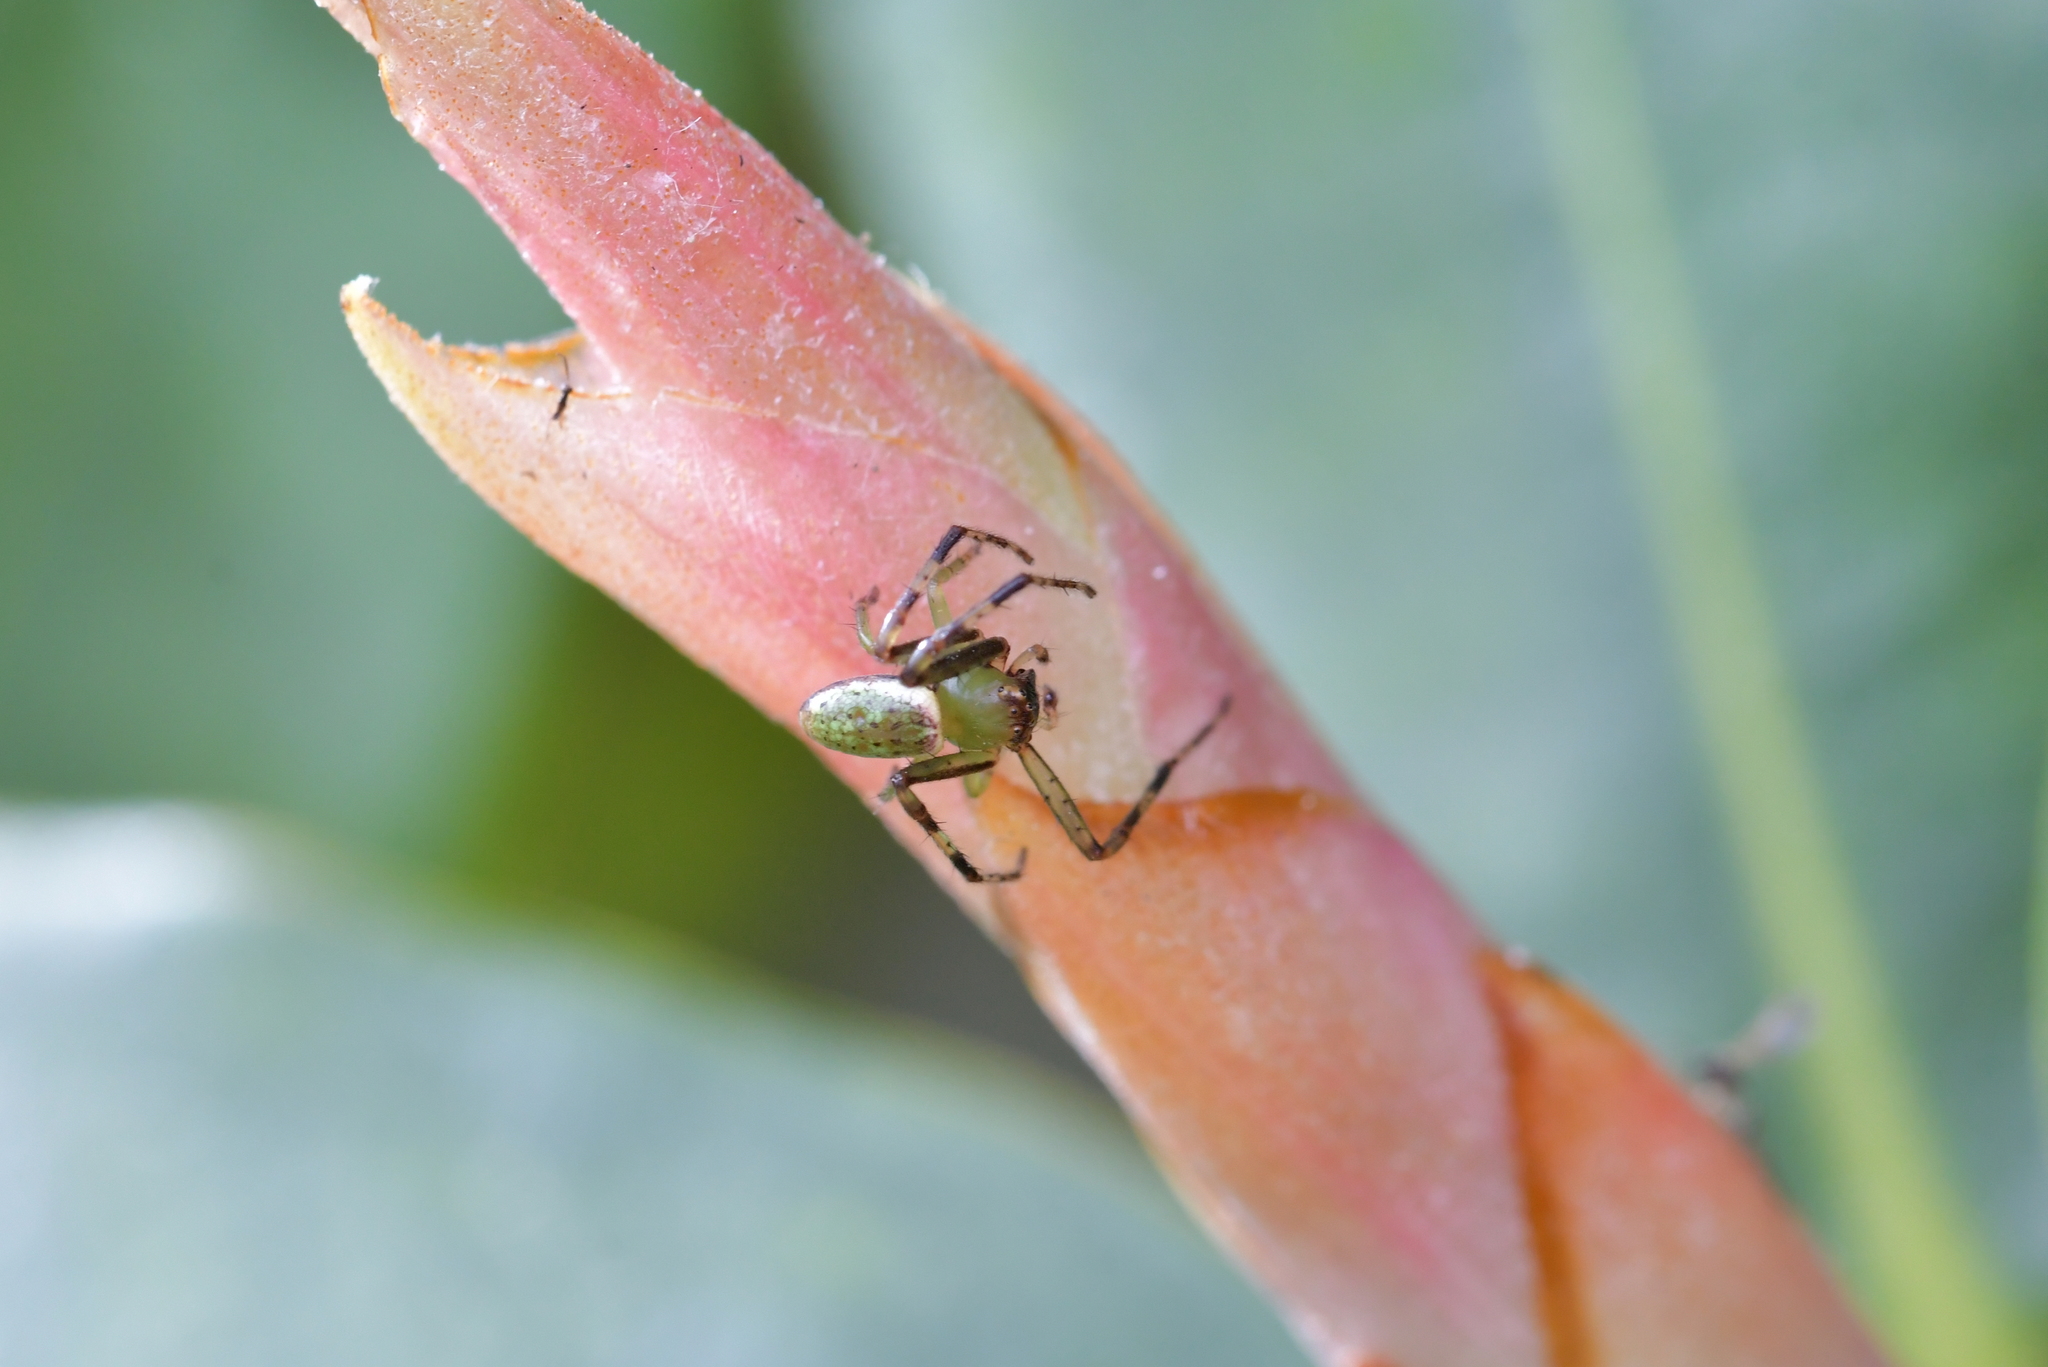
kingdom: Animalia
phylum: Arthropoda
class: Arachnida
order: Araneae
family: Thomisidae
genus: Diaea
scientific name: Diaea ambara
